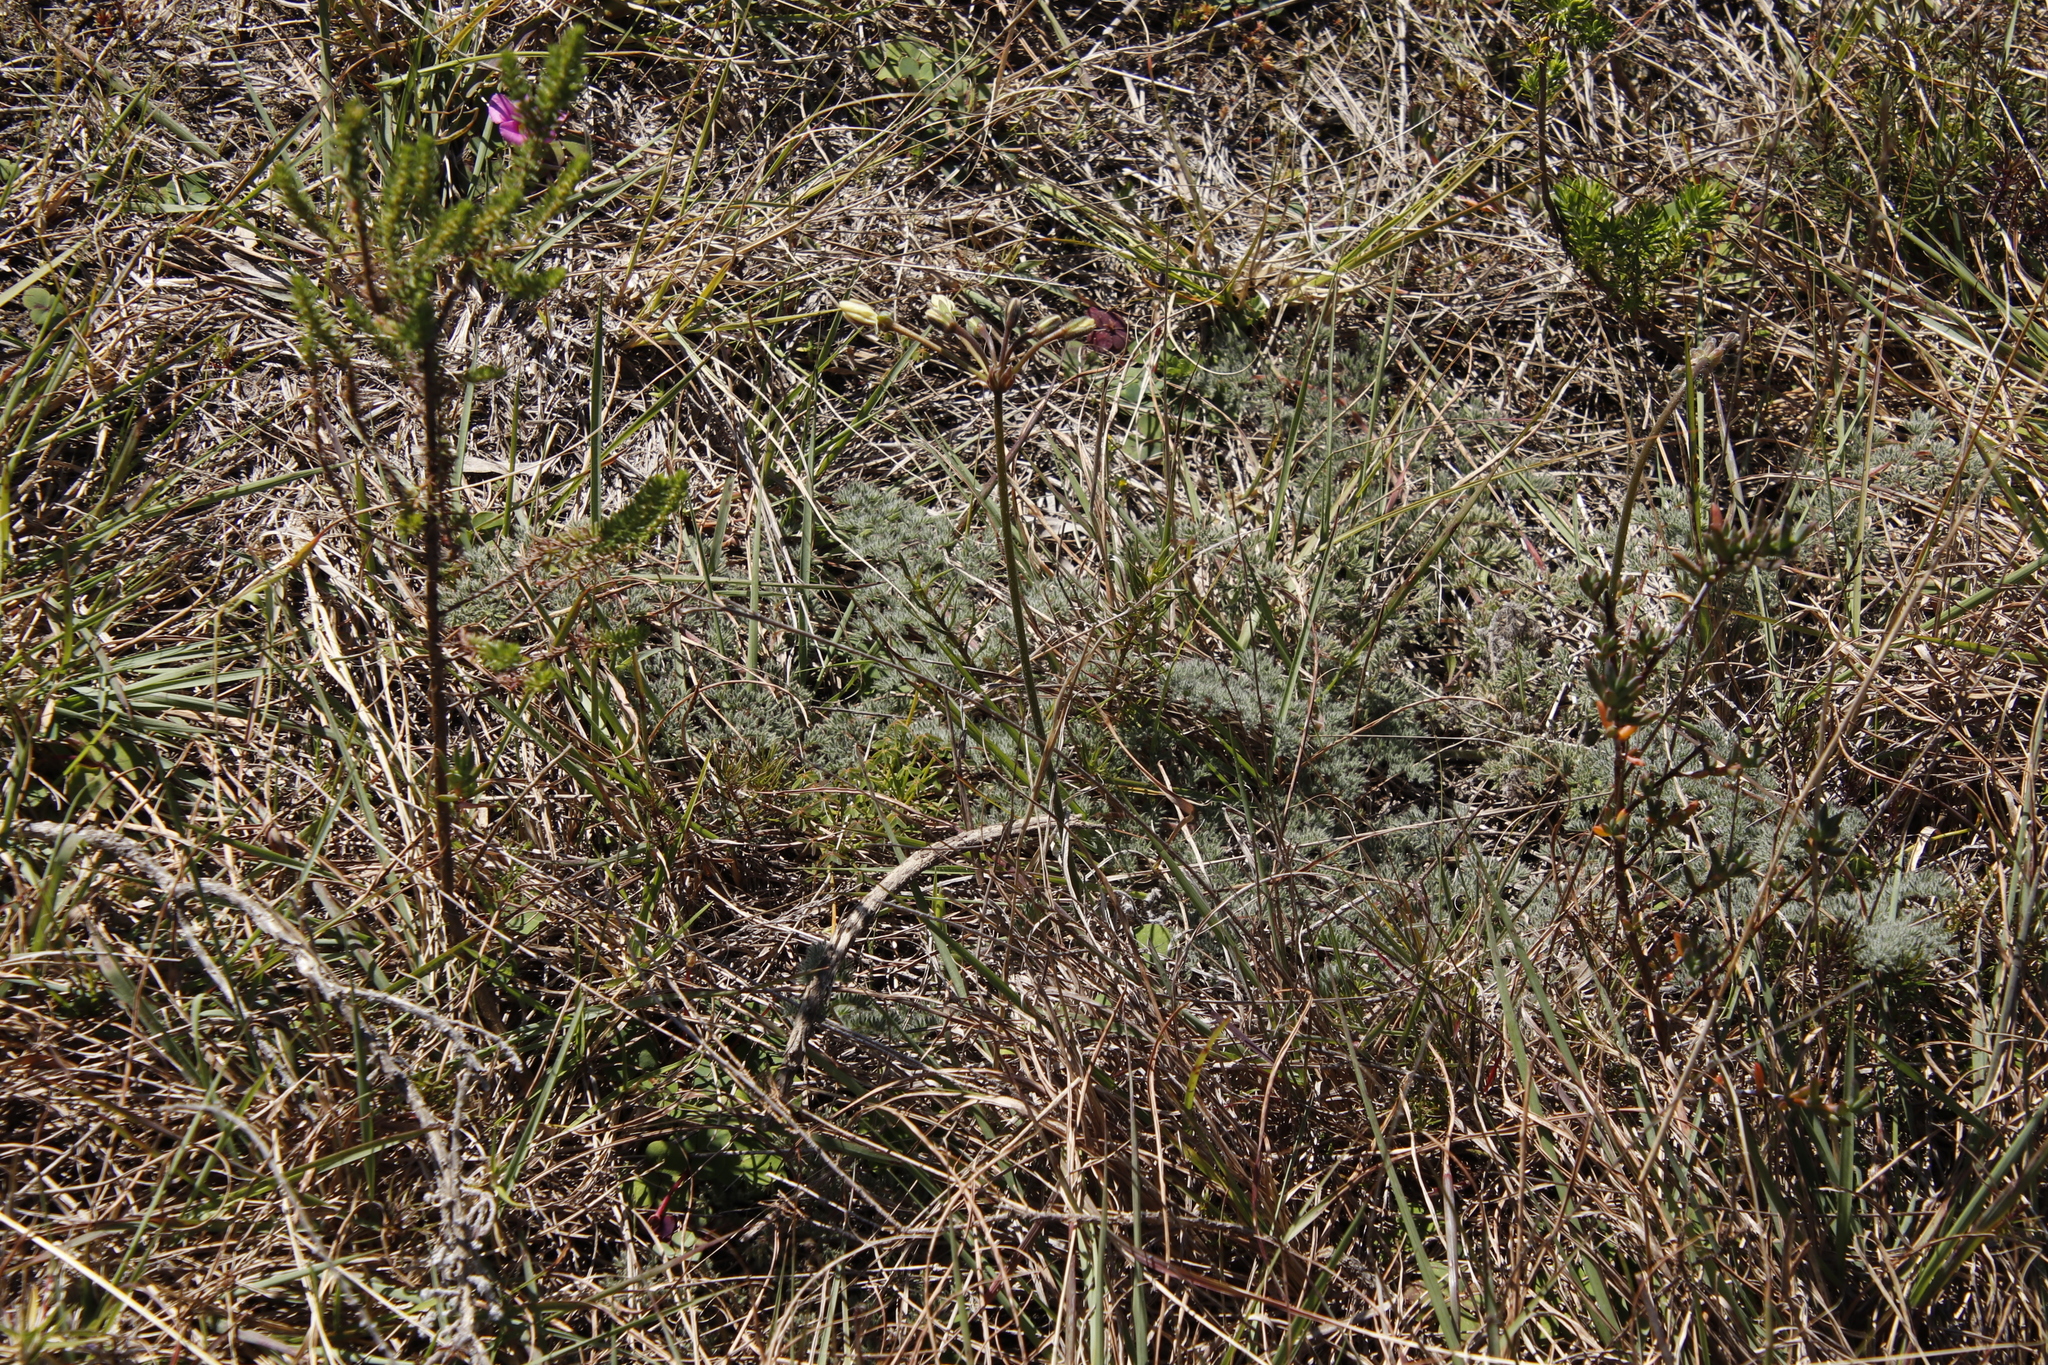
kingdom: Plantae
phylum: Tracheophyta
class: Magnoliopsida
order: Geraniales
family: Geraniaceae
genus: Pelargonium
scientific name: Pelargonium triste
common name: Night-scent pelargonium
